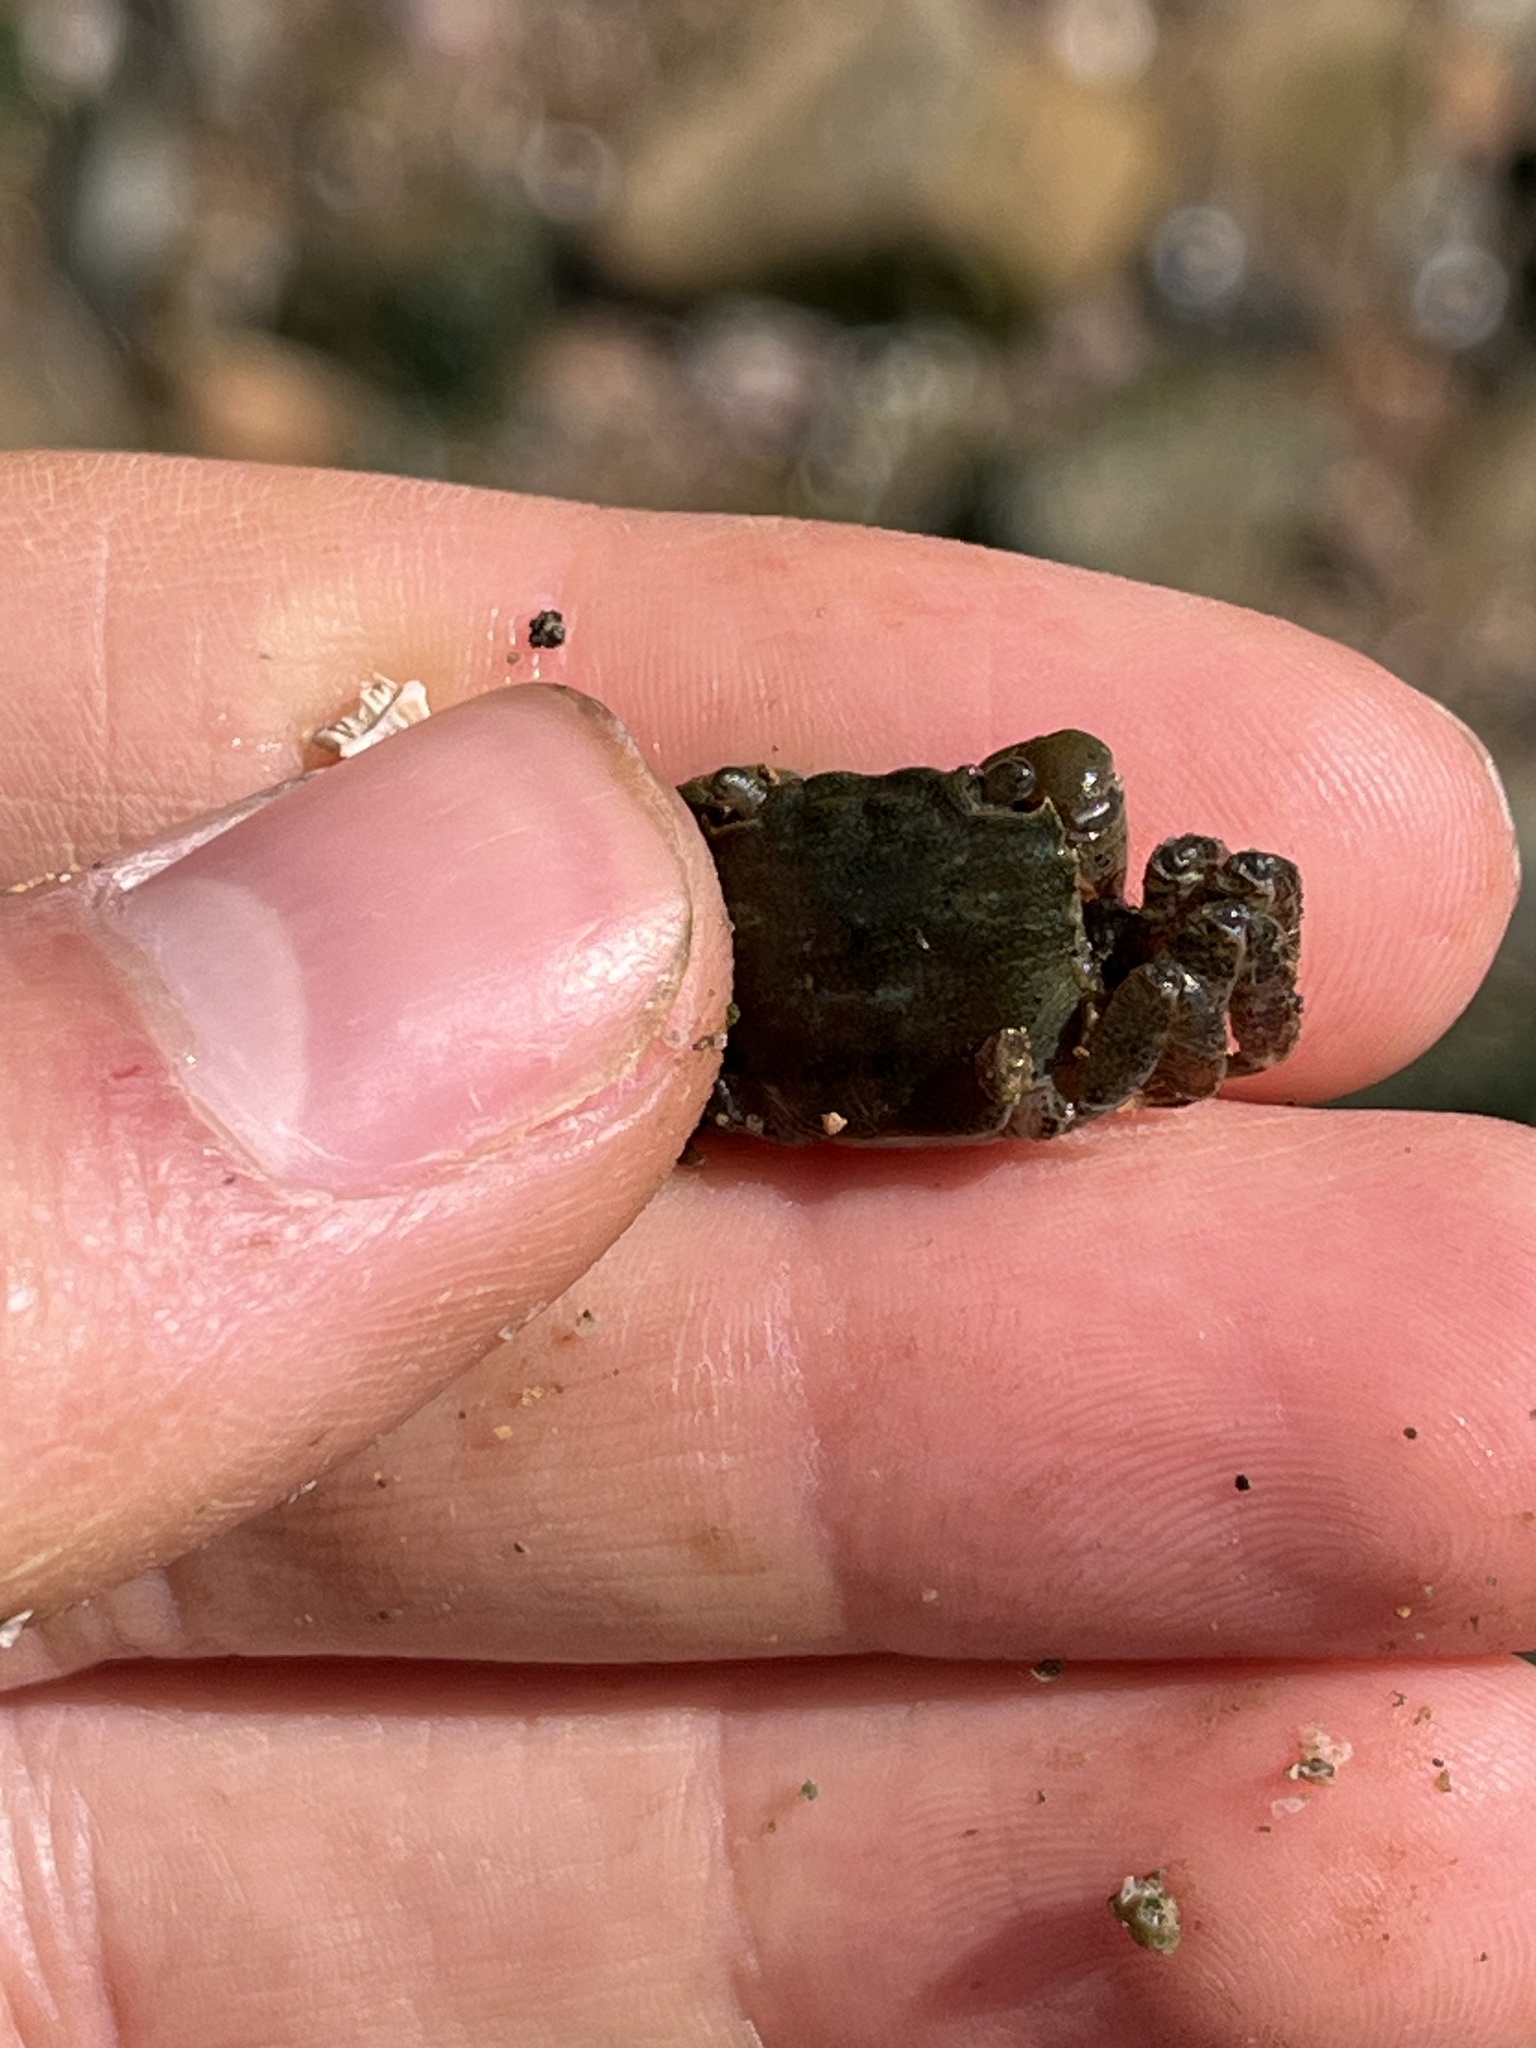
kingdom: Animalia
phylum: Arthropoda
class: Malacostraca
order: Decapoda
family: Varunidae
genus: Hemigrapsus
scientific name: Hemigrapsus oregonensis
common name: Yellow shore crab
